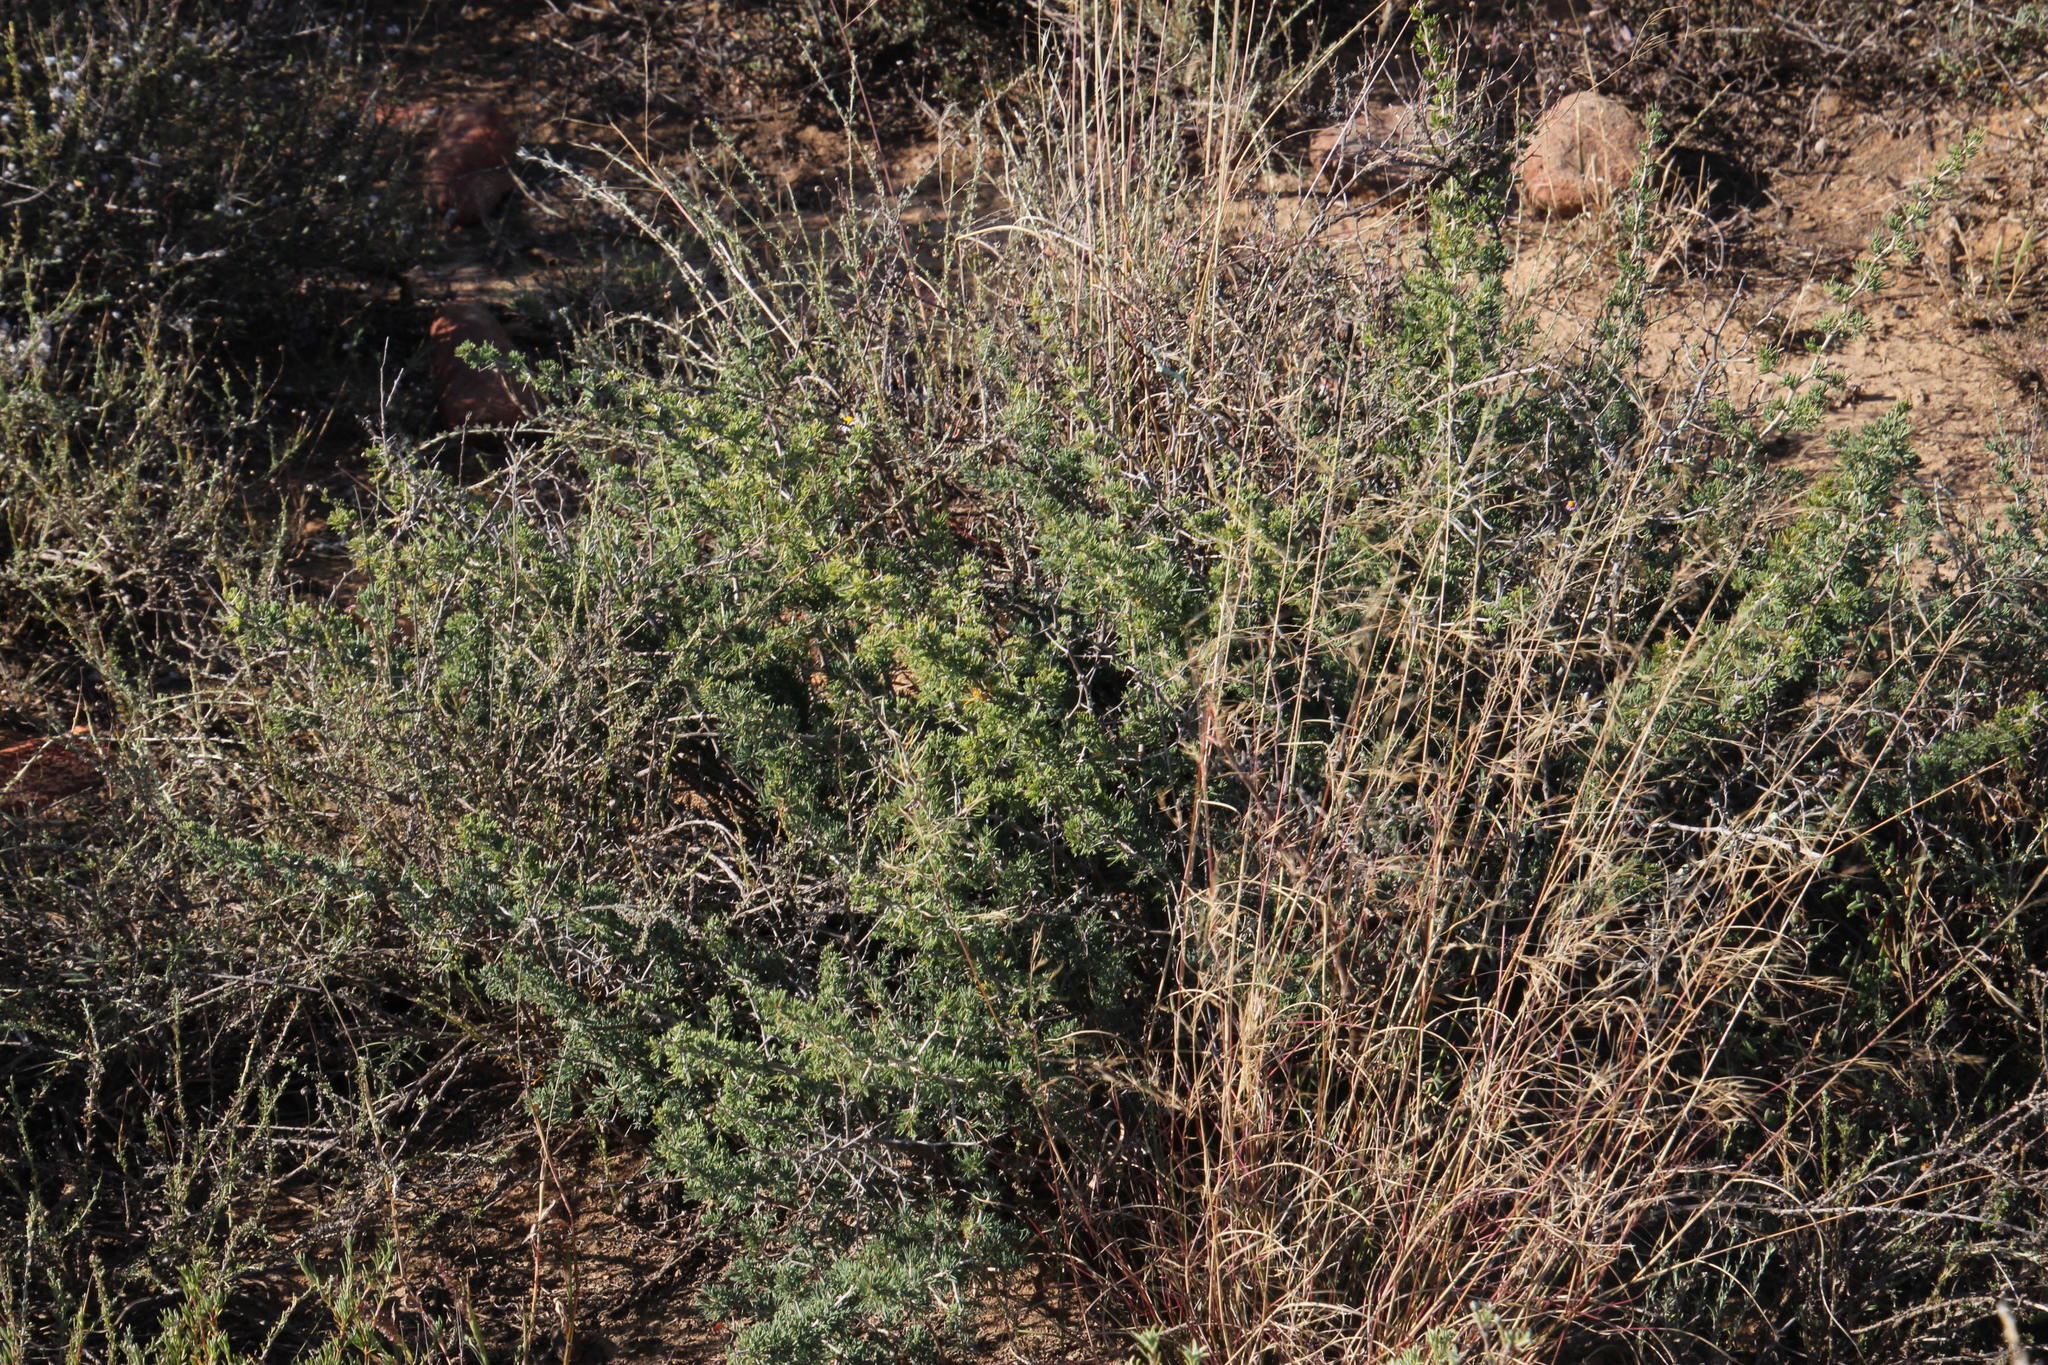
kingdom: Plantae
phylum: Tracheophyta
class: Liliopsida
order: Asparagales
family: Asparagaceae
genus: Asparagus
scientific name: Asparagus suaveolens
